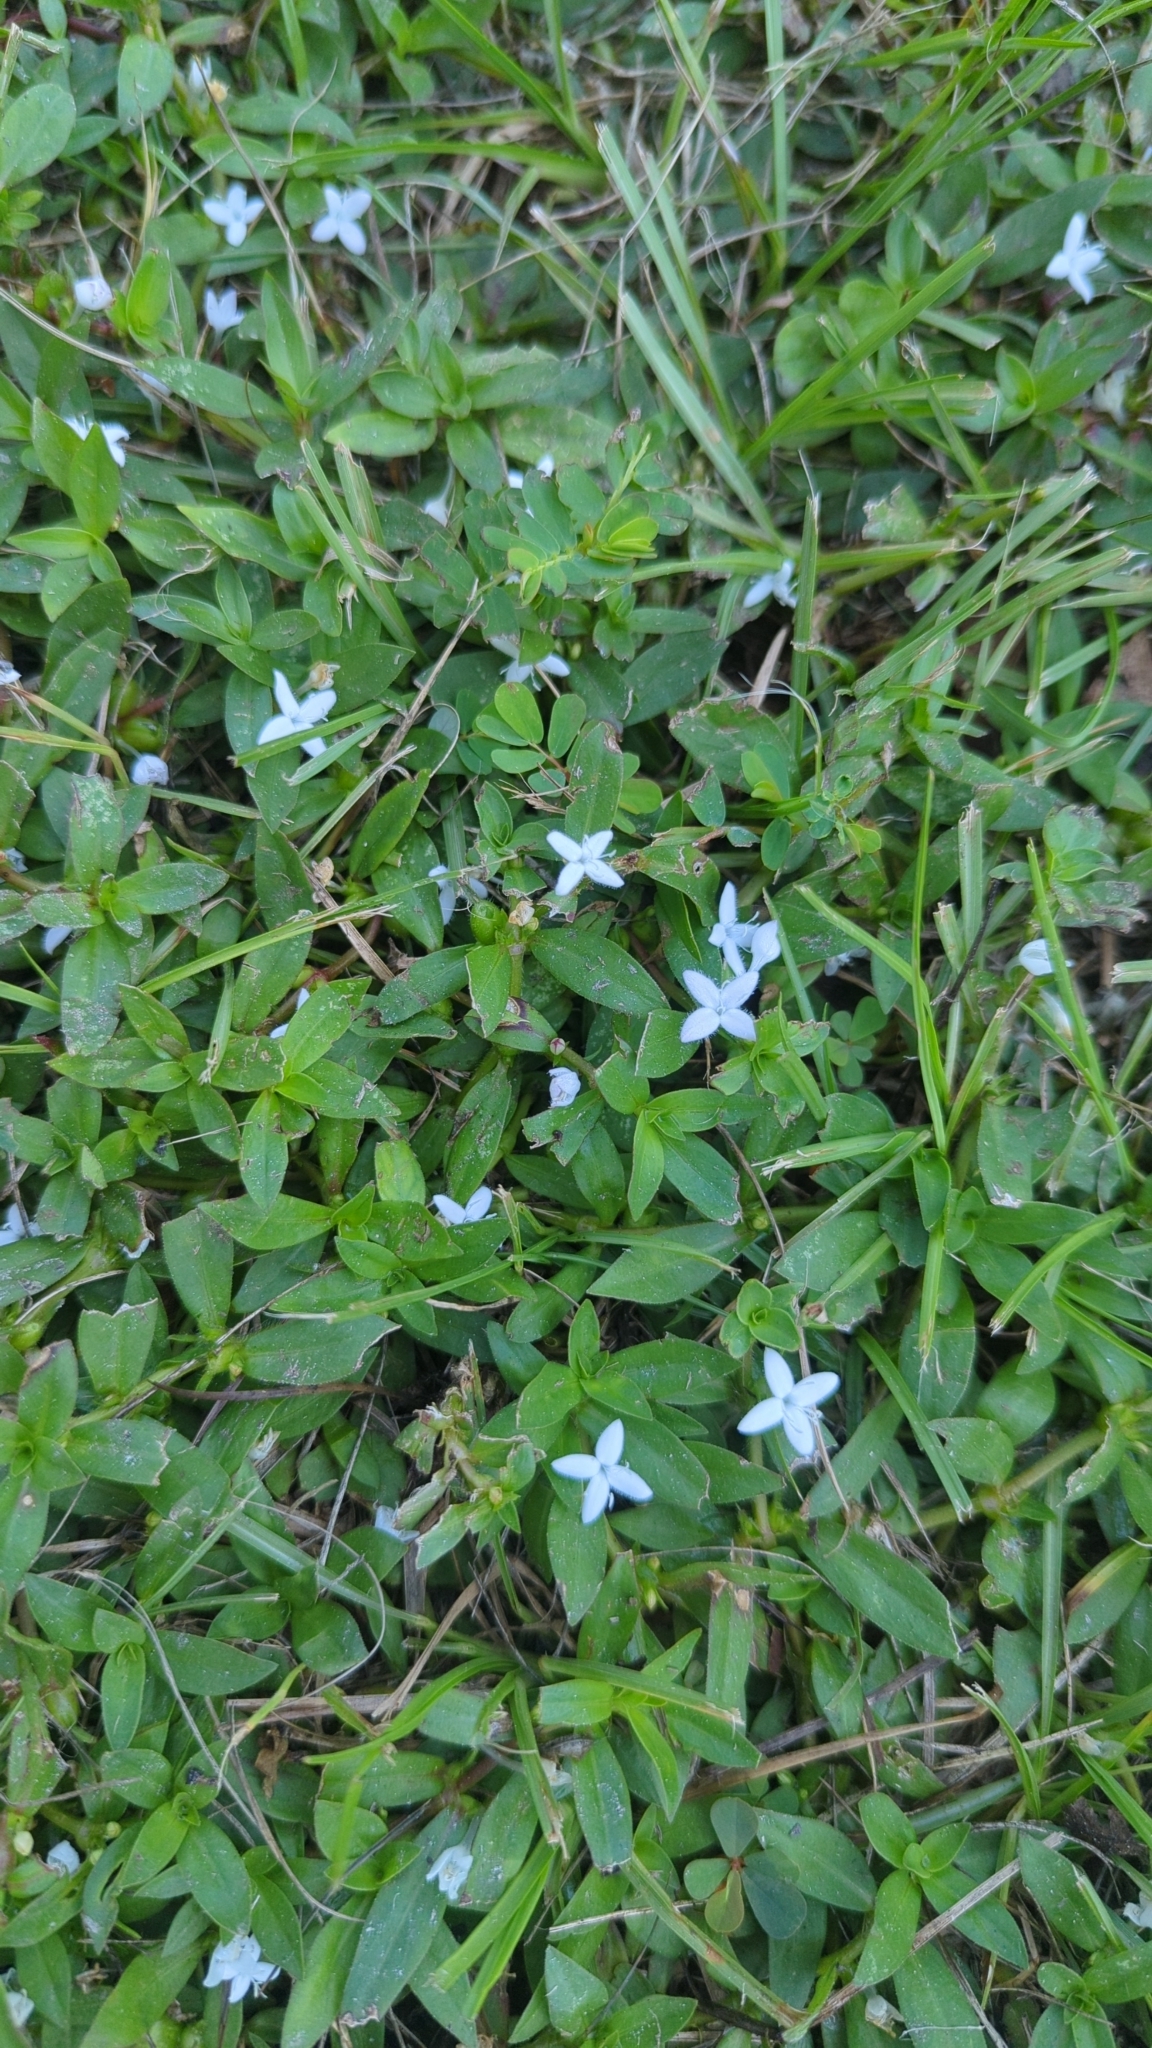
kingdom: Plantae
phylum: Tracheophyta
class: Magnoliopsida
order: Gentianales
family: Rubiaceae
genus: Diodia
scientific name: Diodia virginiana
